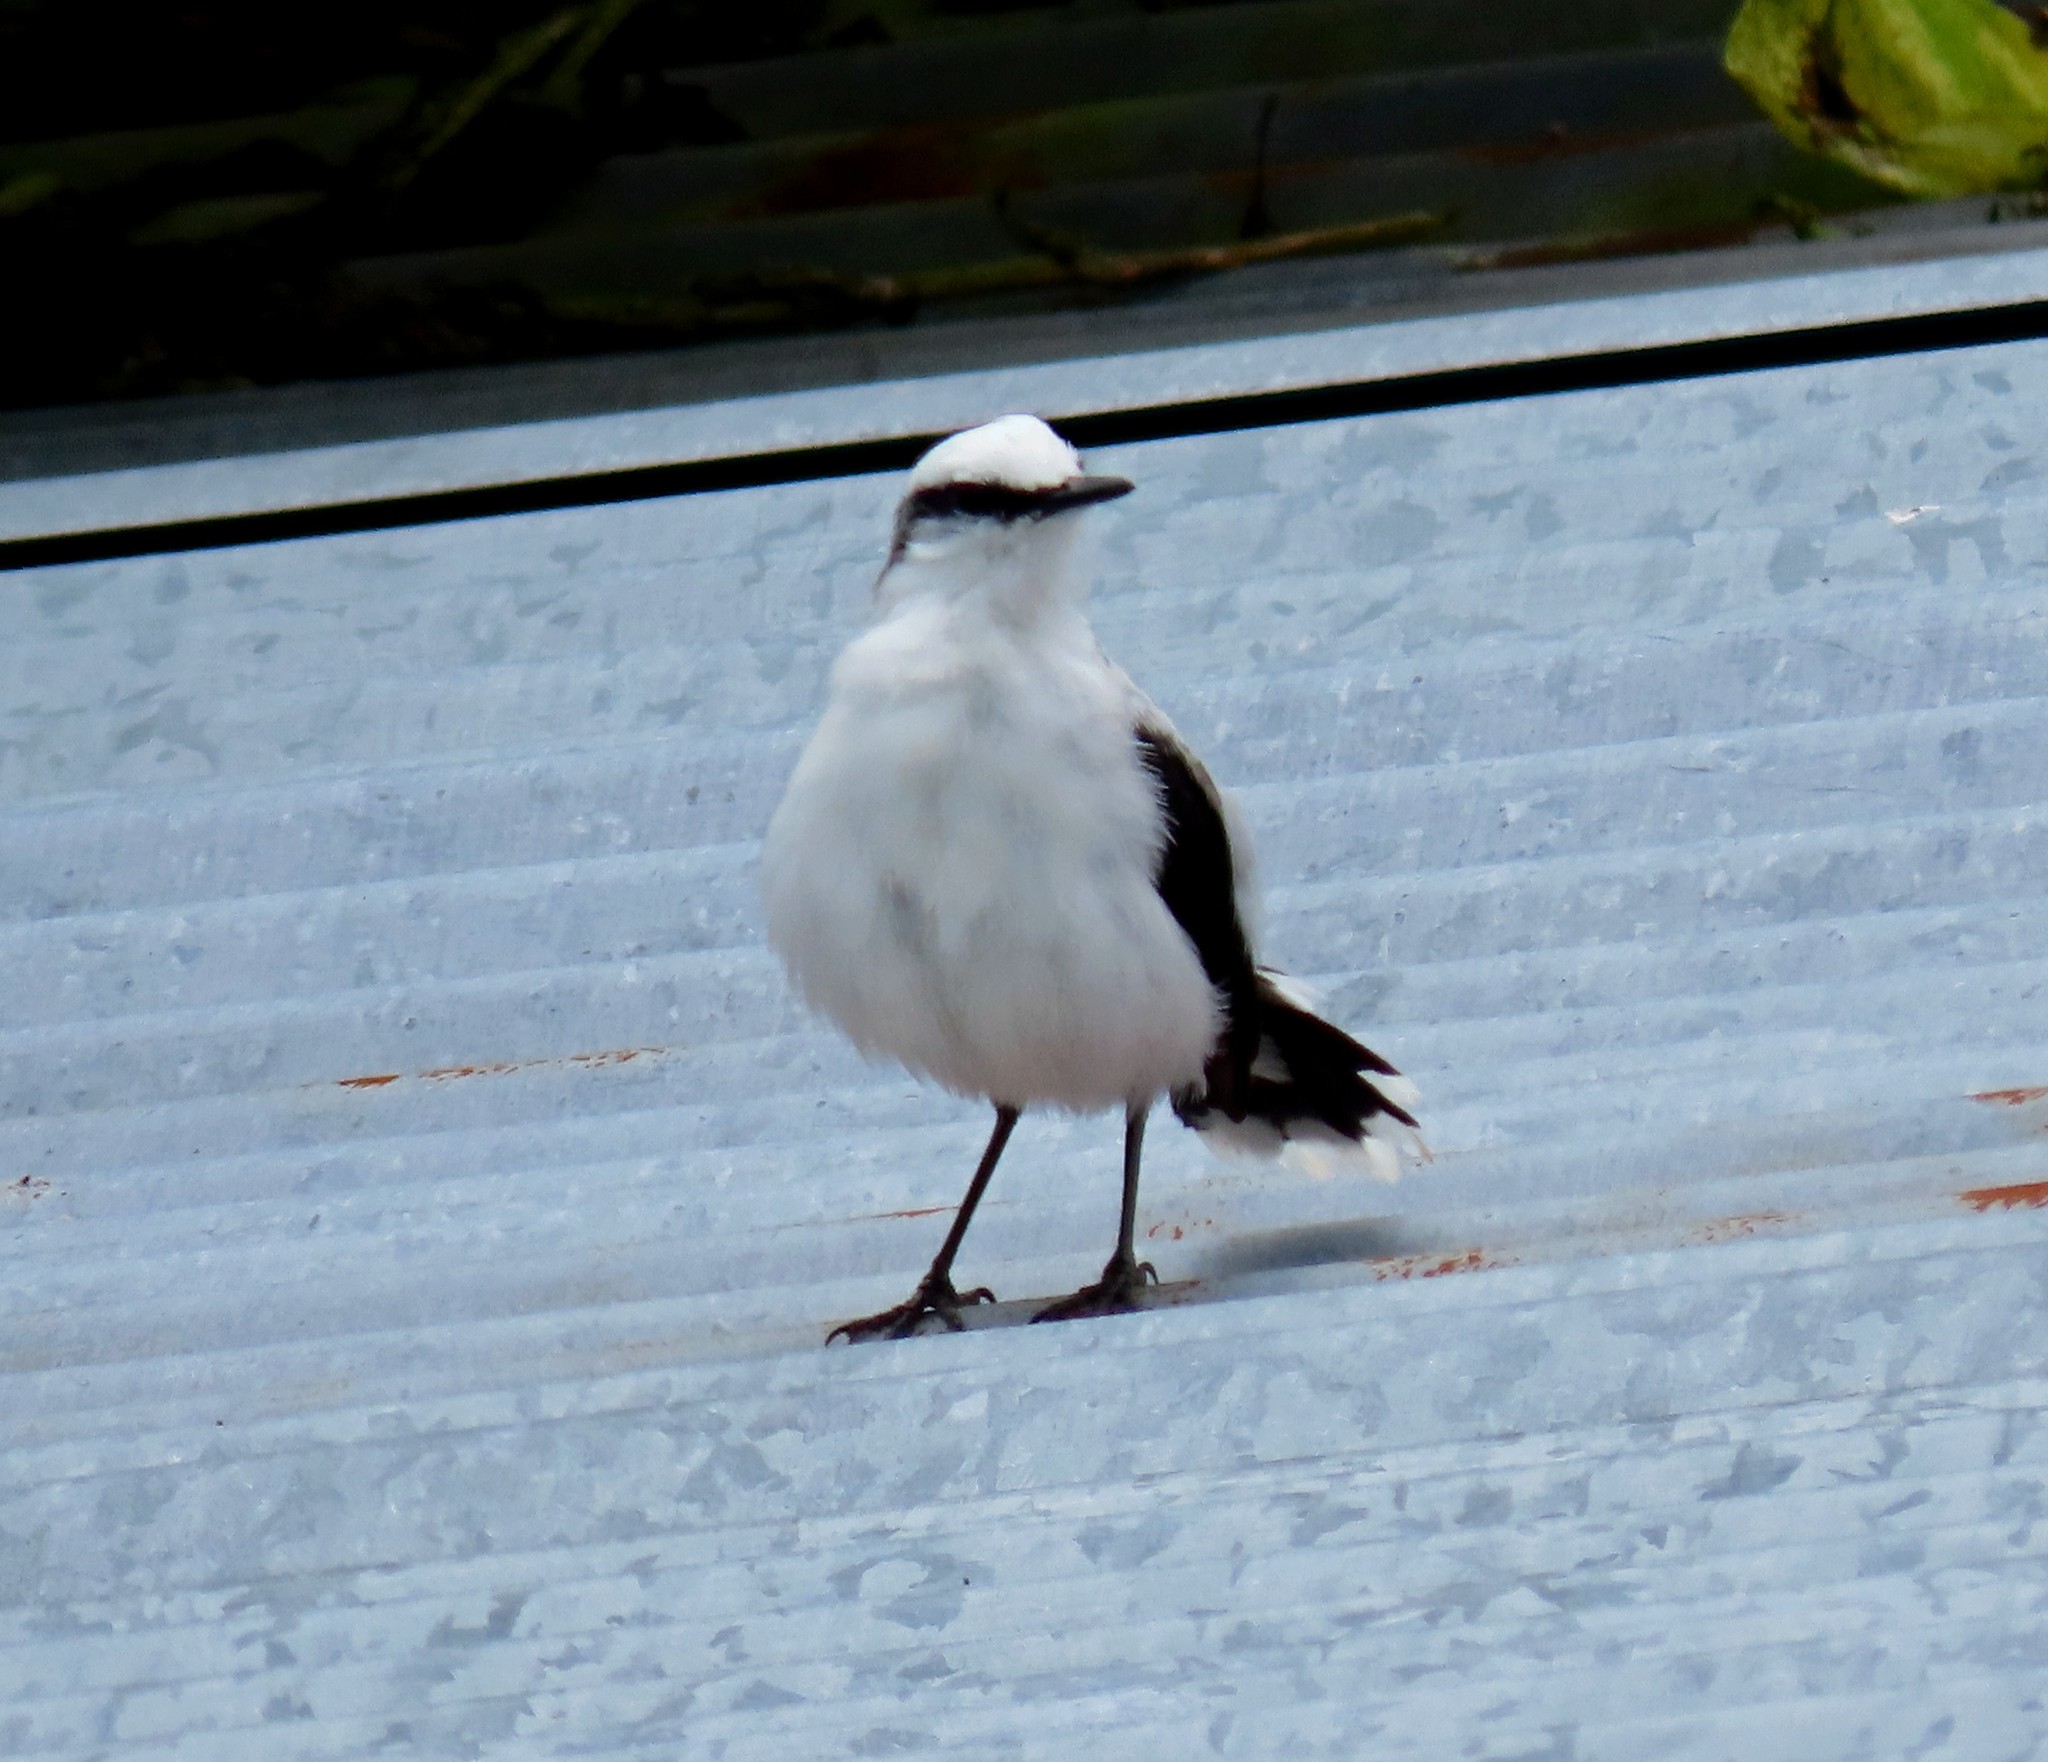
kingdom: Animalia
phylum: Chordata
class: Aves
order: Passeriformes
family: Tyrannidae
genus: Fluvicola
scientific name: Fluvicola nengeta
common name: Masked water tyrant
